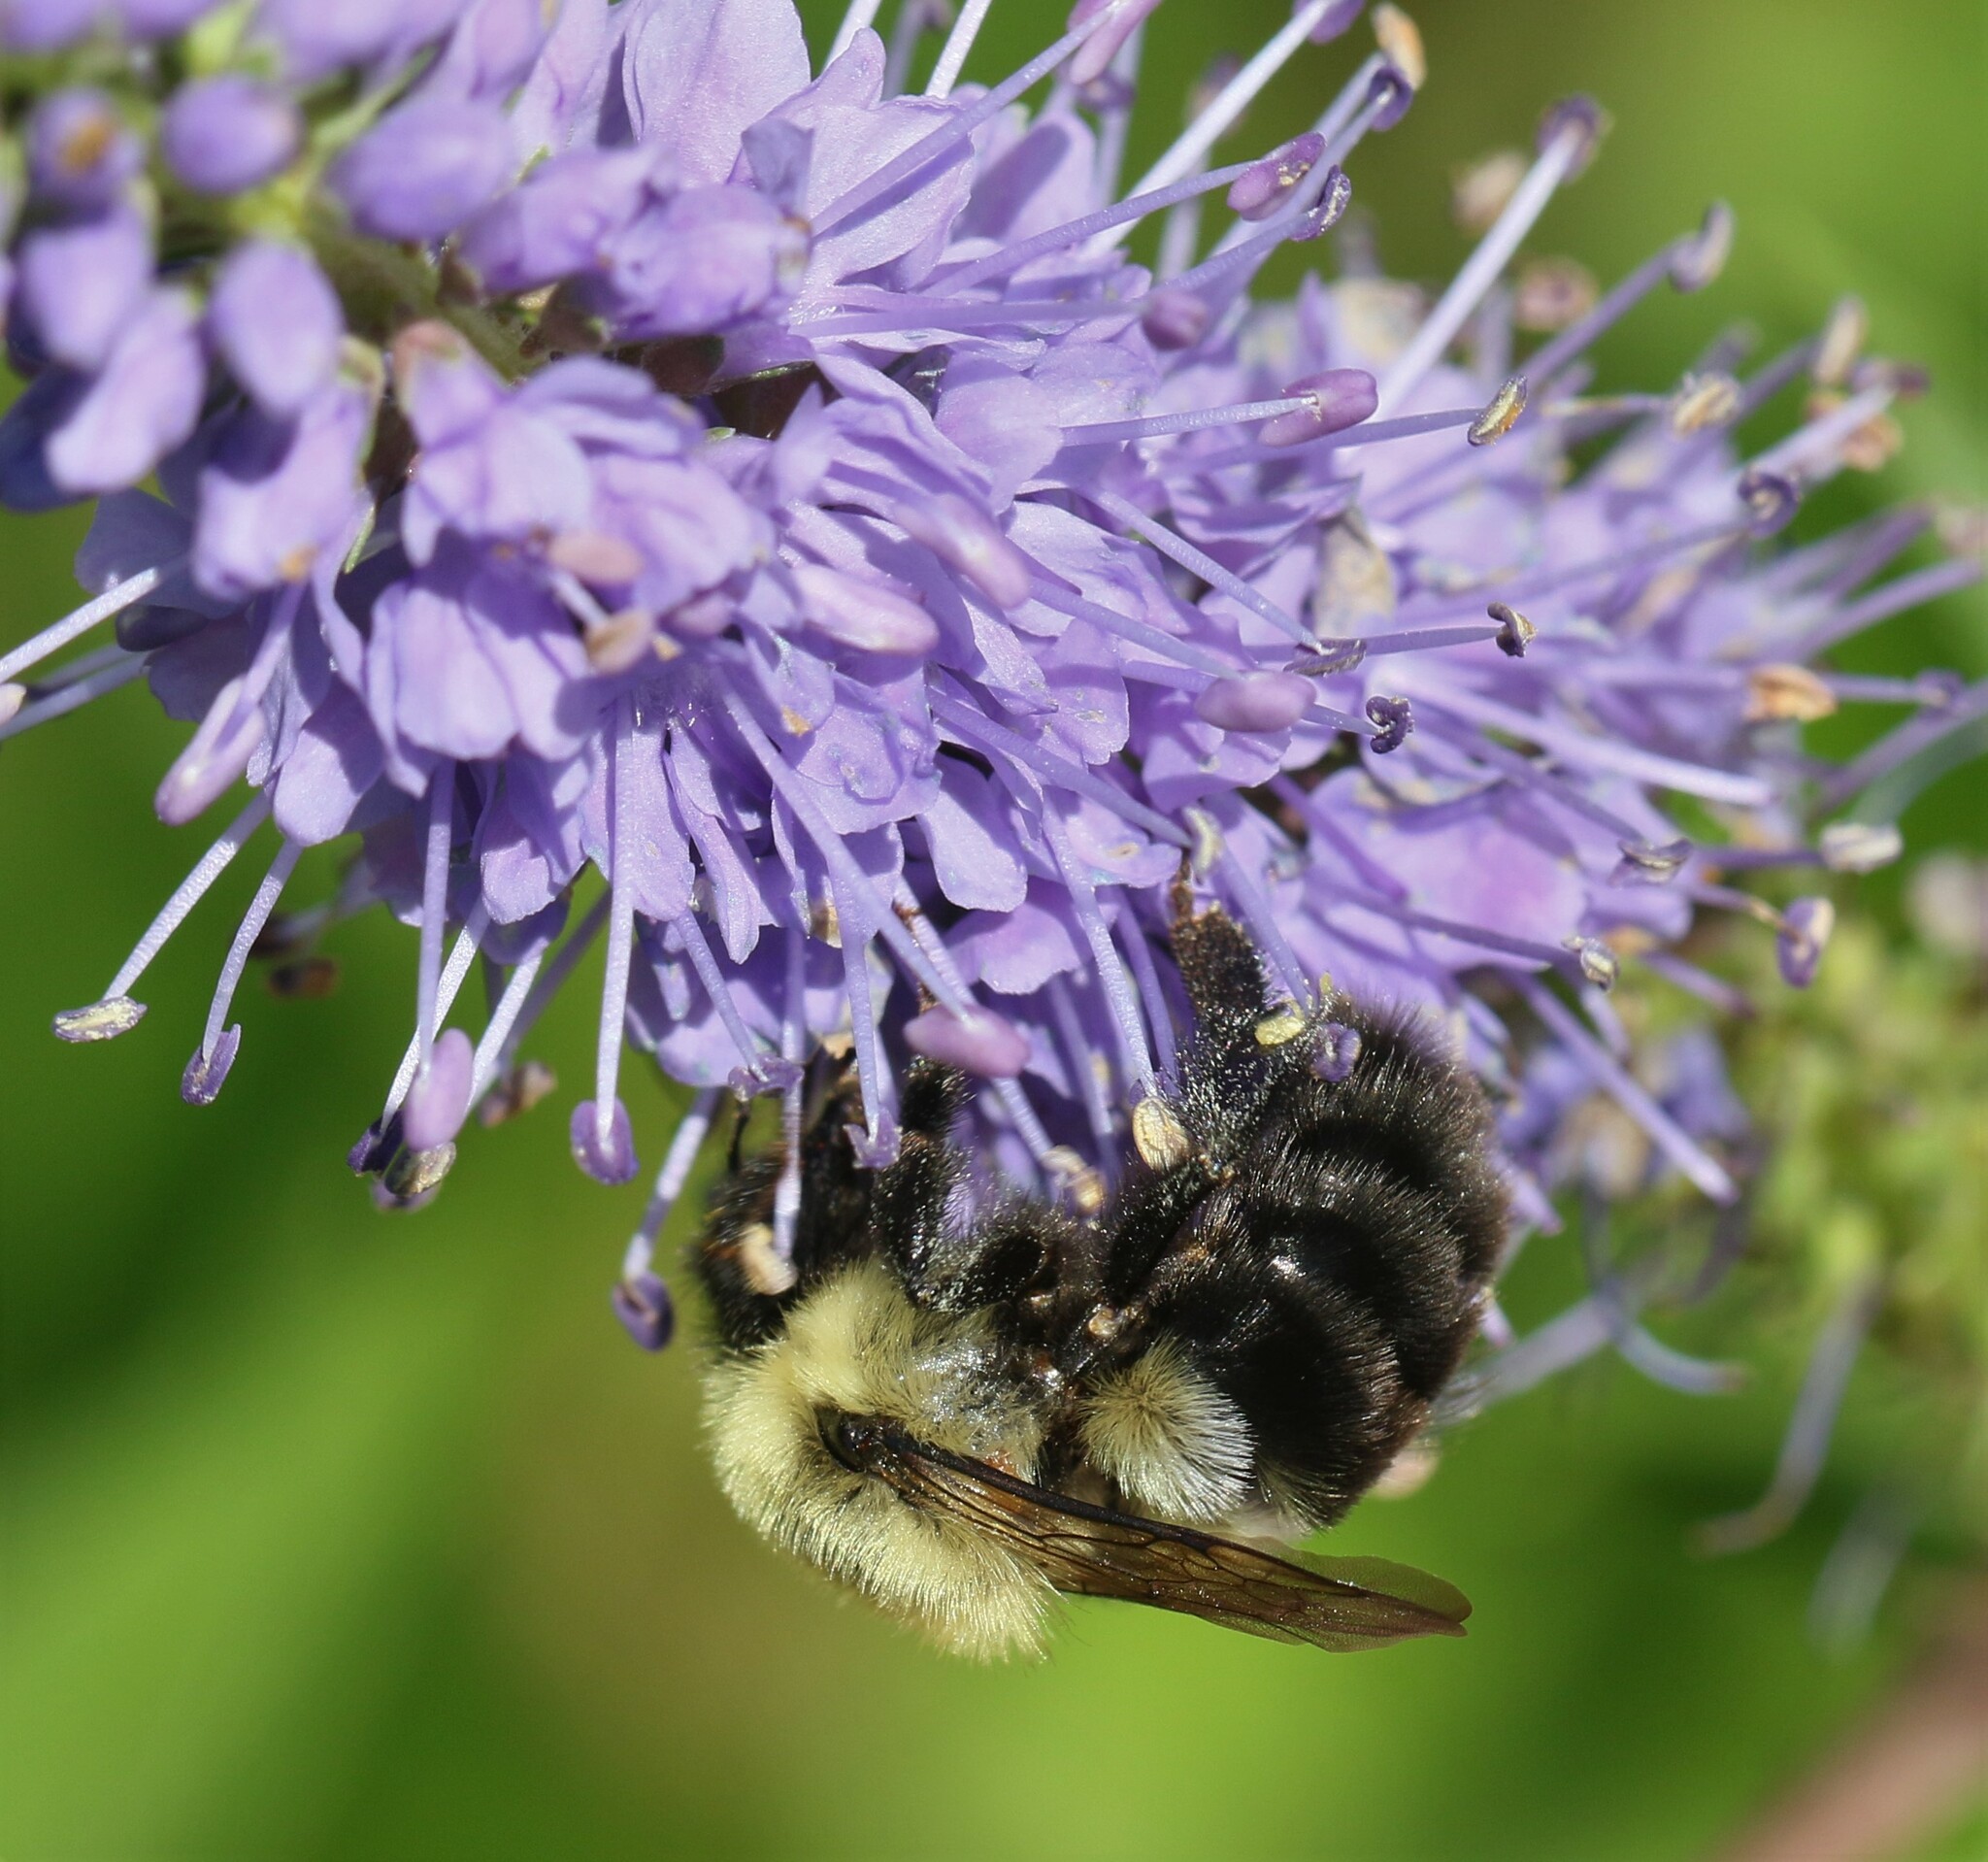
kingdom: Animalia
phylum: Arthropoda
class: Insecta
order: Hymenoptera
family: Apidae
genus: Bombus
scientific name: Bombus impatiens
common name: Common eastern bumble bee
